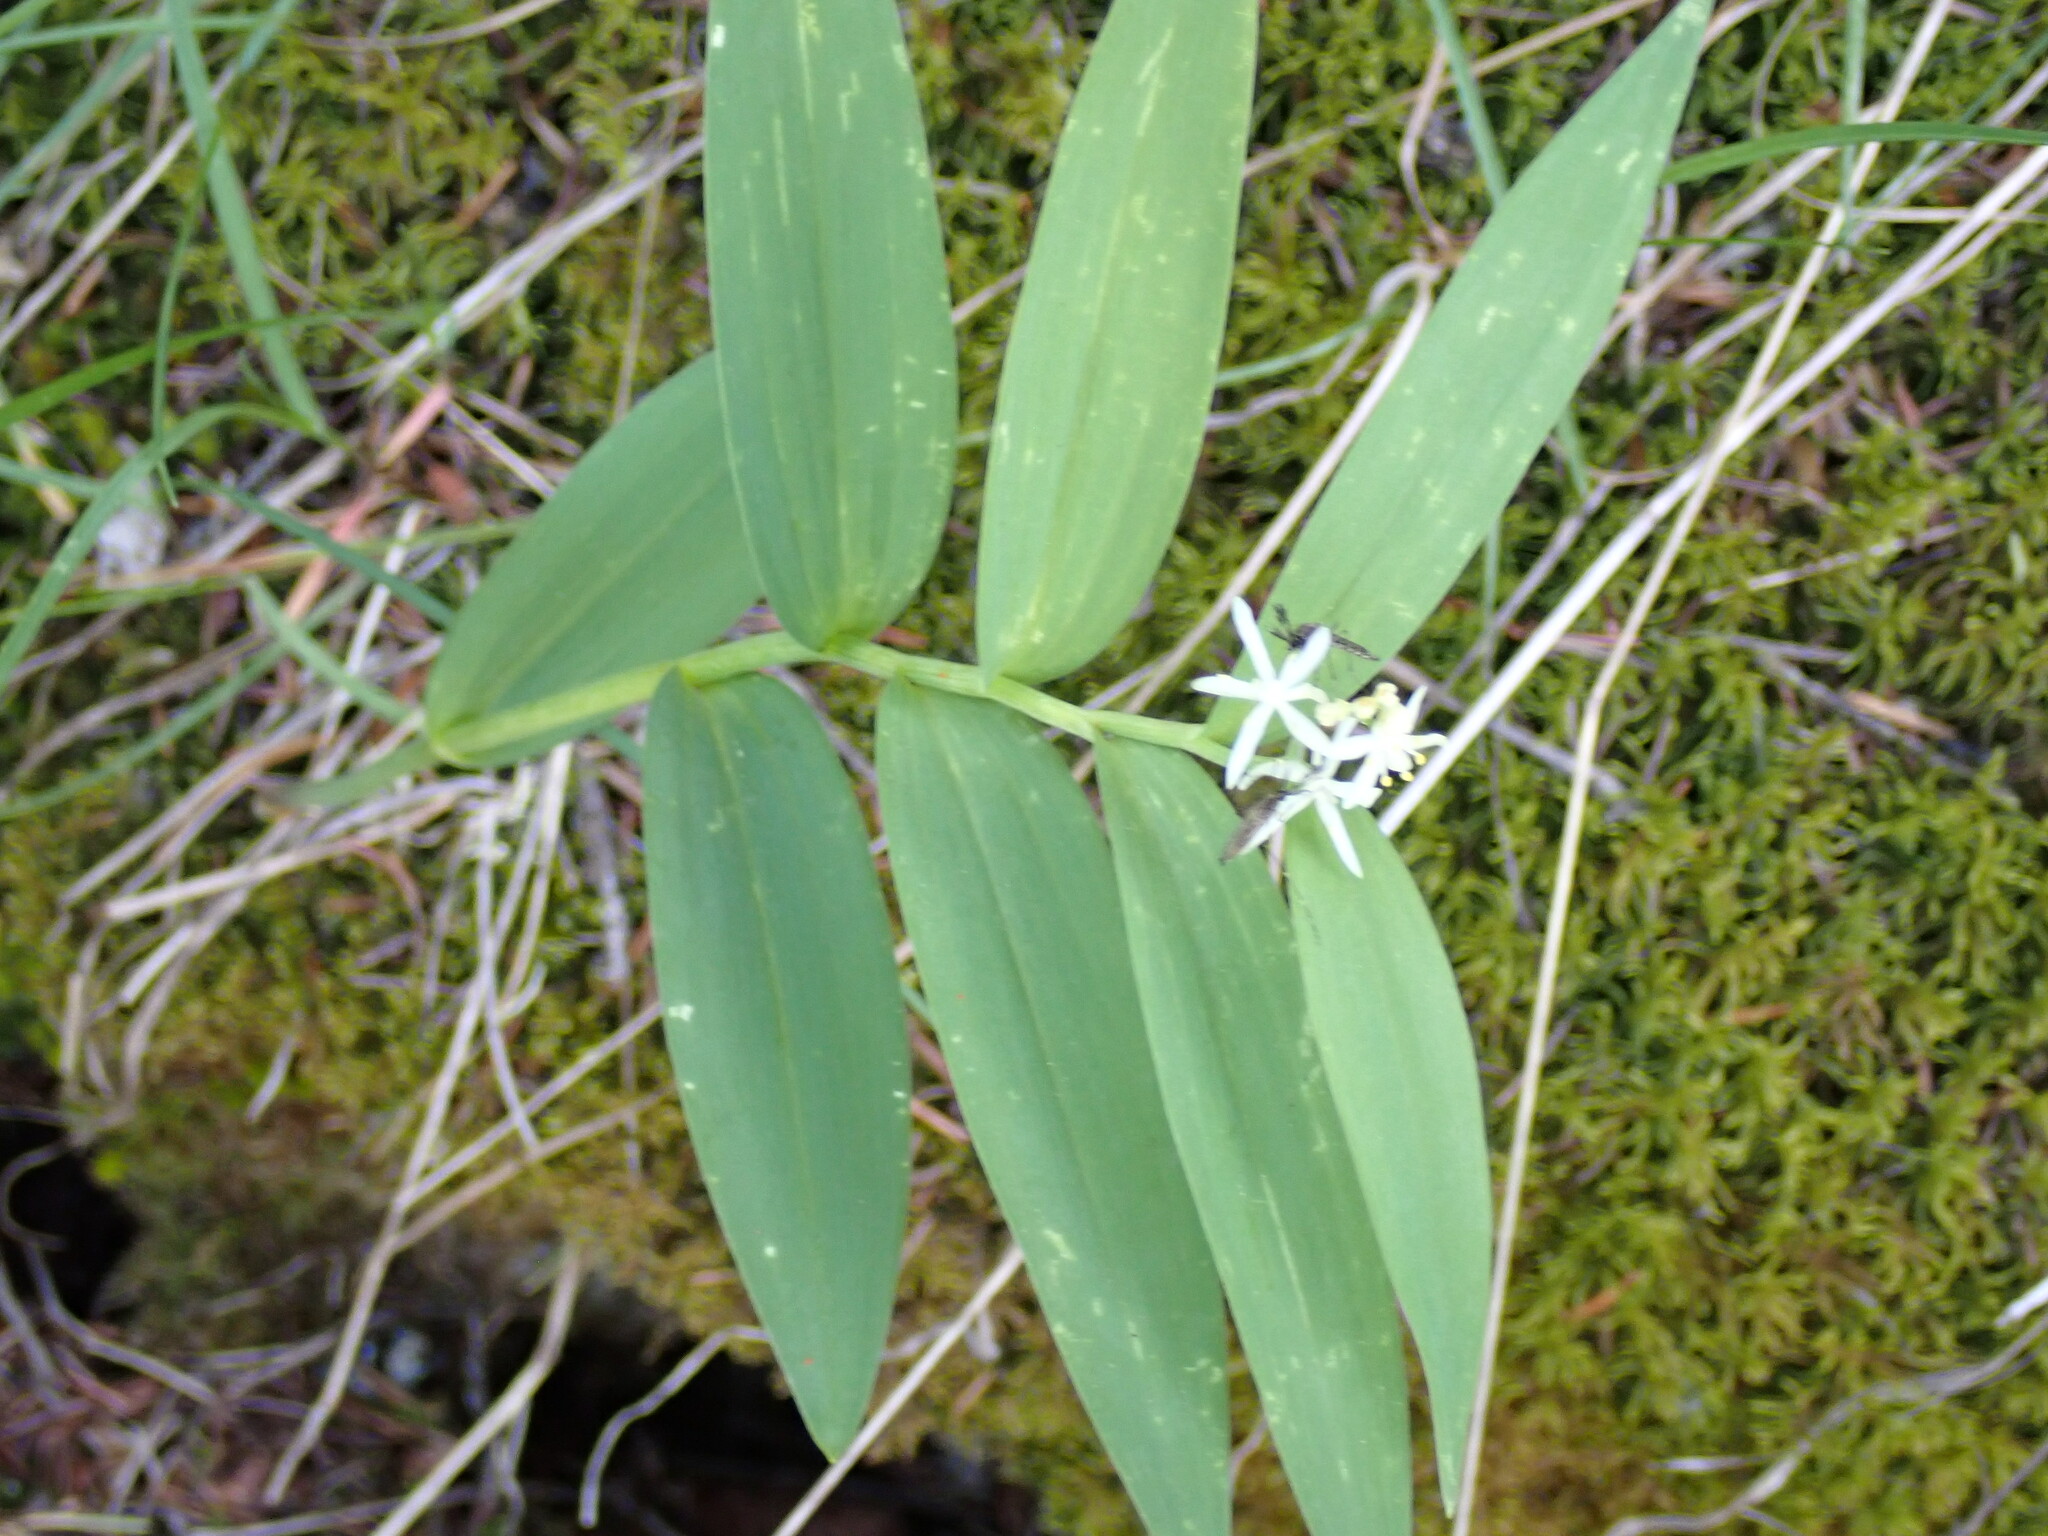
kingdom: Plantae
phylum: Tracheophyta
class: Liliopsida
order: Asparagales
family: Asparagaceae
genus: Maianthemum
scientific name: Maianthemum stellatum
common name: Little false solomon's seal
